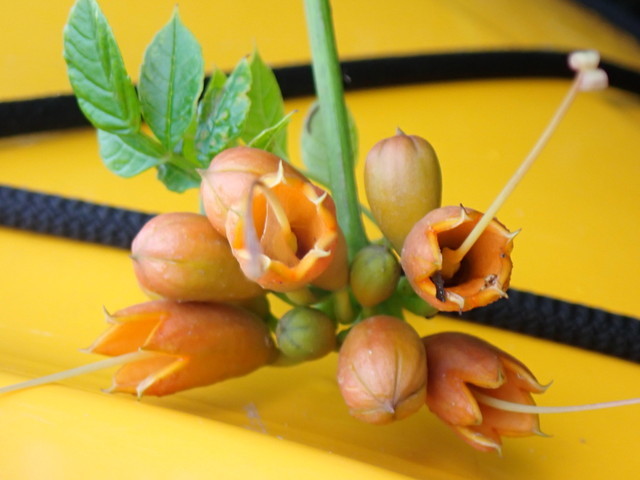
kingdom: Plantae
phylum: Tracheophyta
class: Magnoliopsida
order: Lamiales
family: Bignoniaceae
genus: Campsis
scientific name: Campsis radicans
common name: Trumpet-creeper
